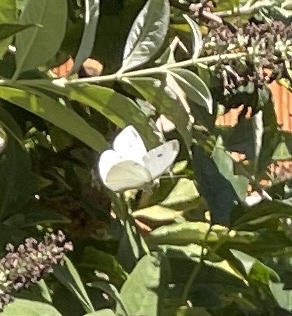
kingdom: Animalia
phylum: Arthropoda
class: Insecta
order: Lepidoptera
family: Pieridae
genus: Pieris
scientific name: Pieris rapae
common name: Small white
